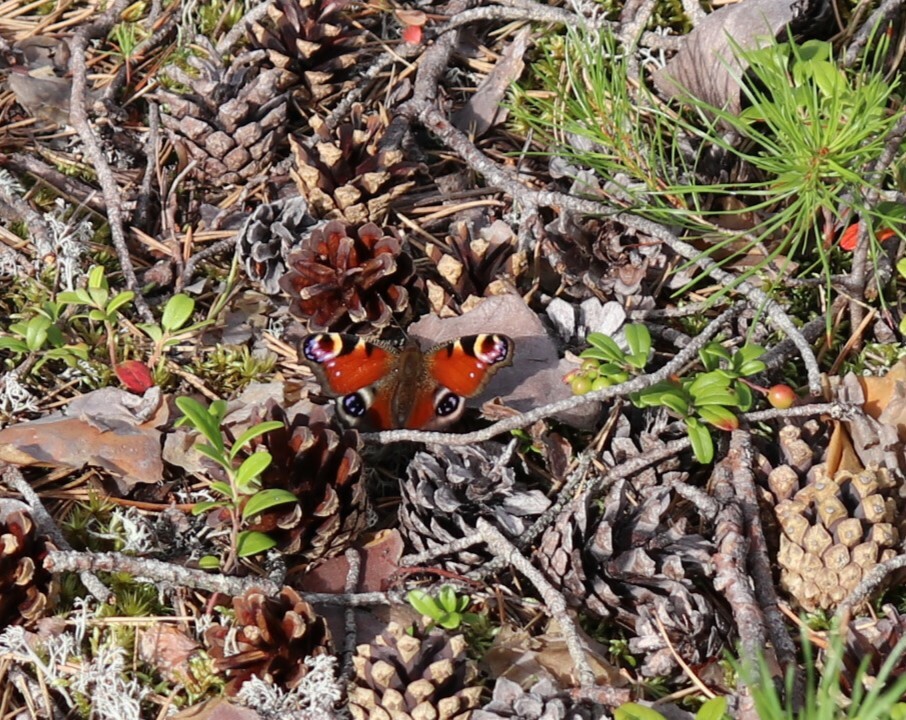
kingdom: Animalia
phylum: Arthropoda
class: Insecta
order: Lepidoptera
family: Nymphalidae
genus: Aglais
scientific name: Aglais io
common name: Peacock
